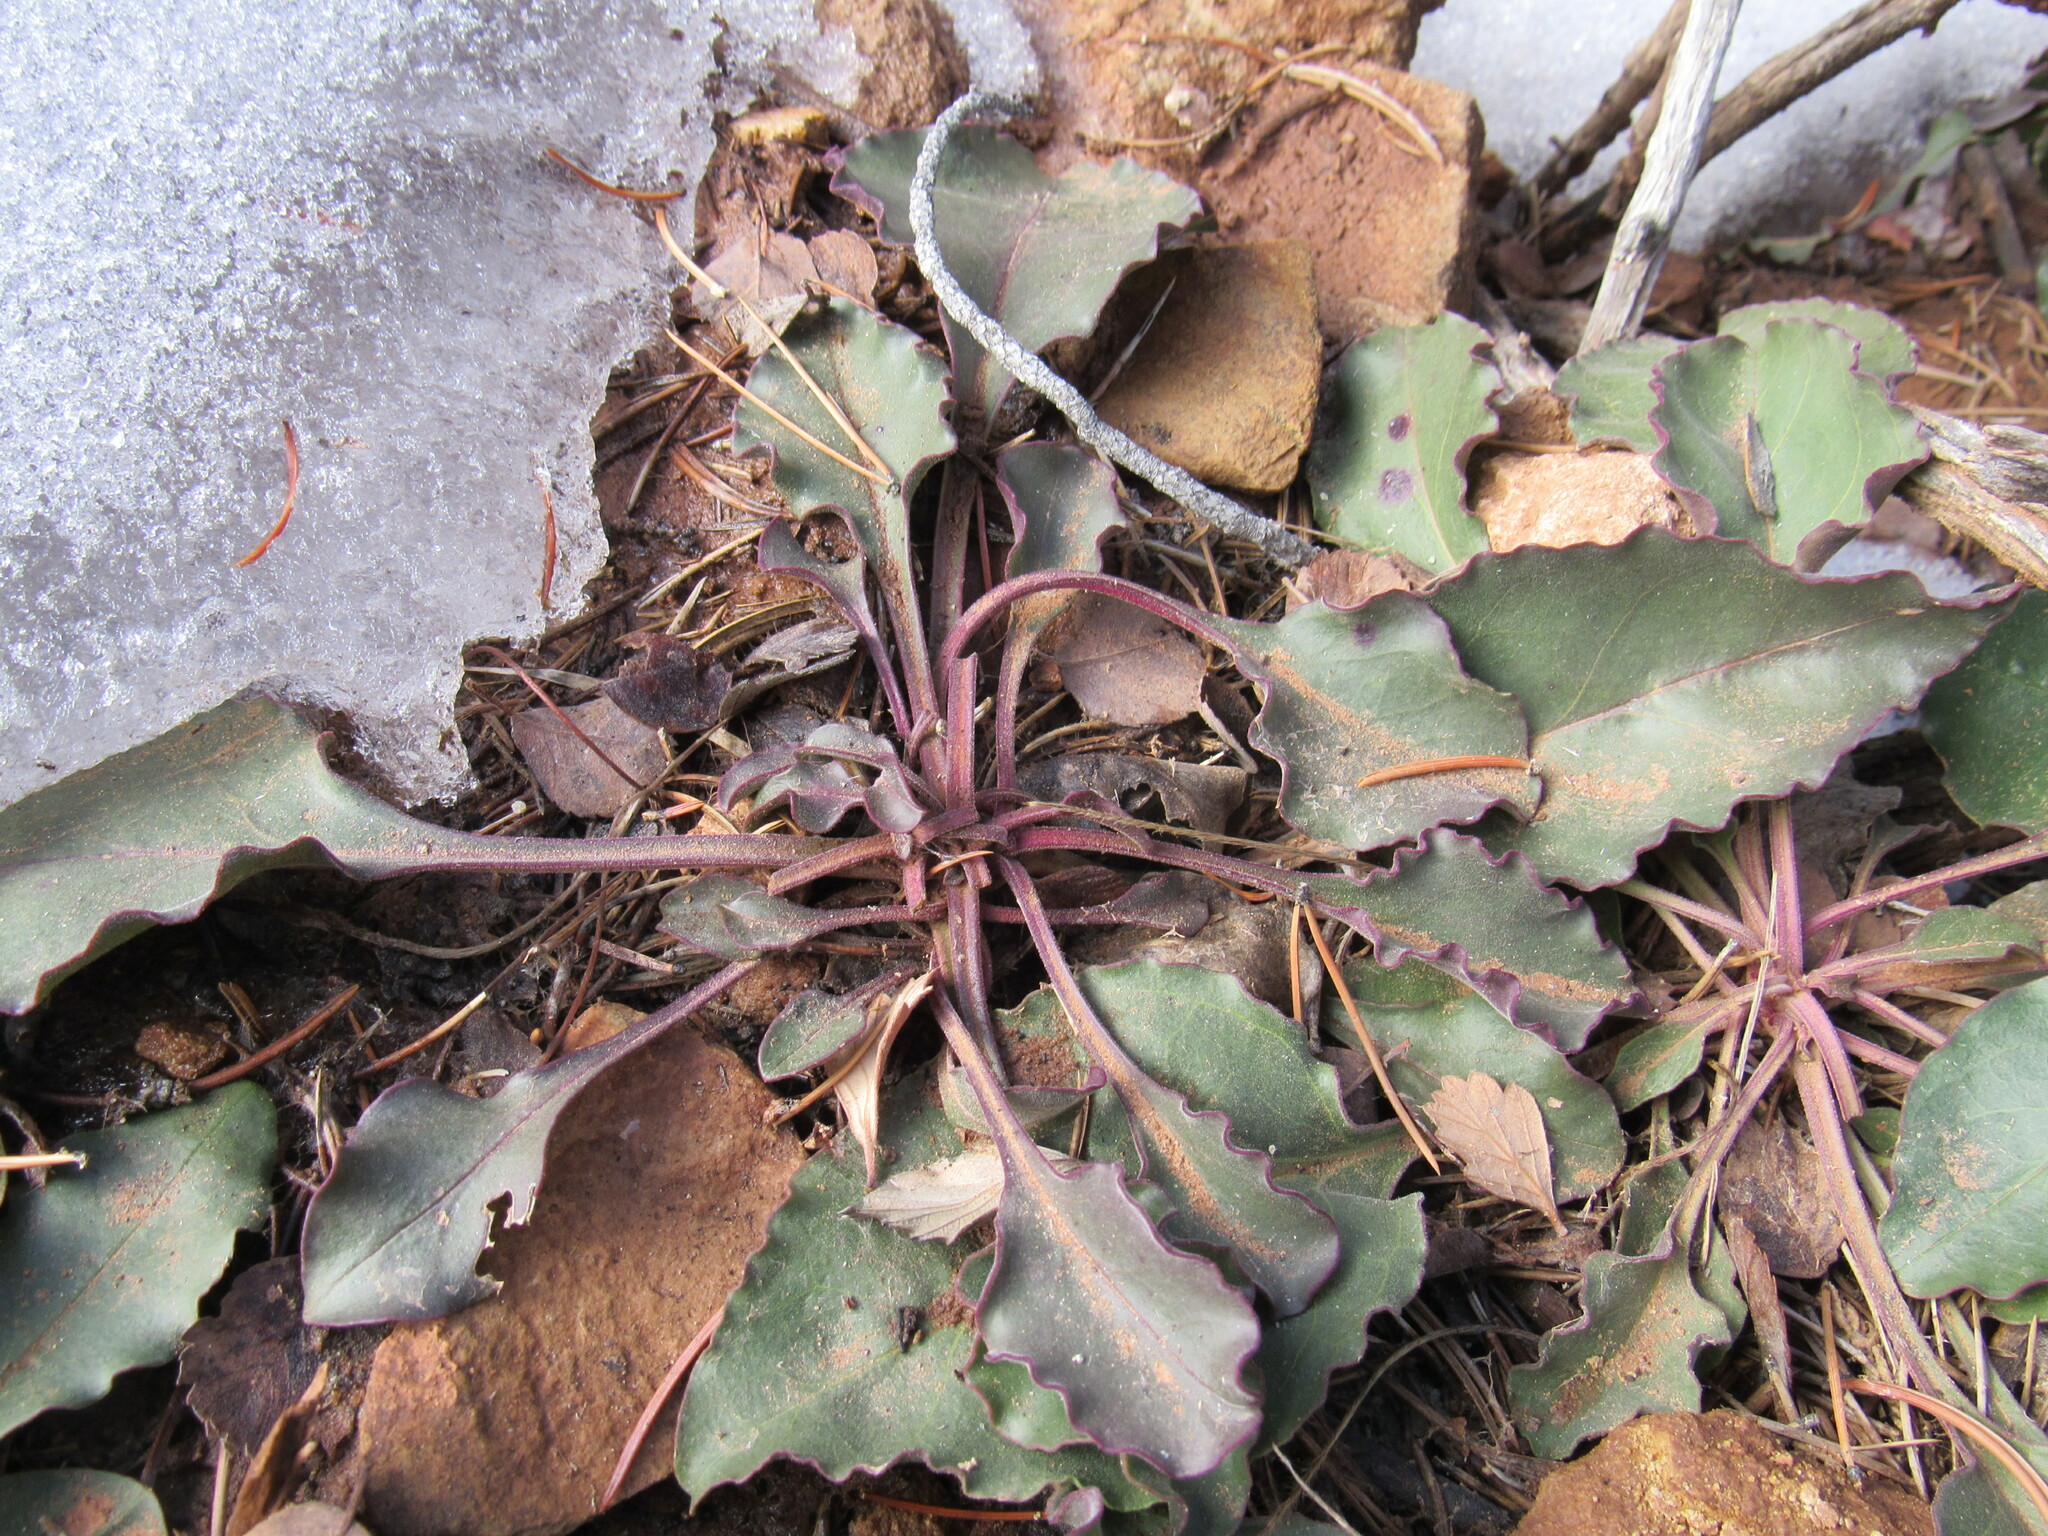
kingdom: Plantae
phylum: Tracheophyta
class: Magnoliopsida
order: Lamiales
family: Plantaginaceae
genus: Penstemon
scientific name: Penstemon eatonii
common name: Eaton's penstemon
